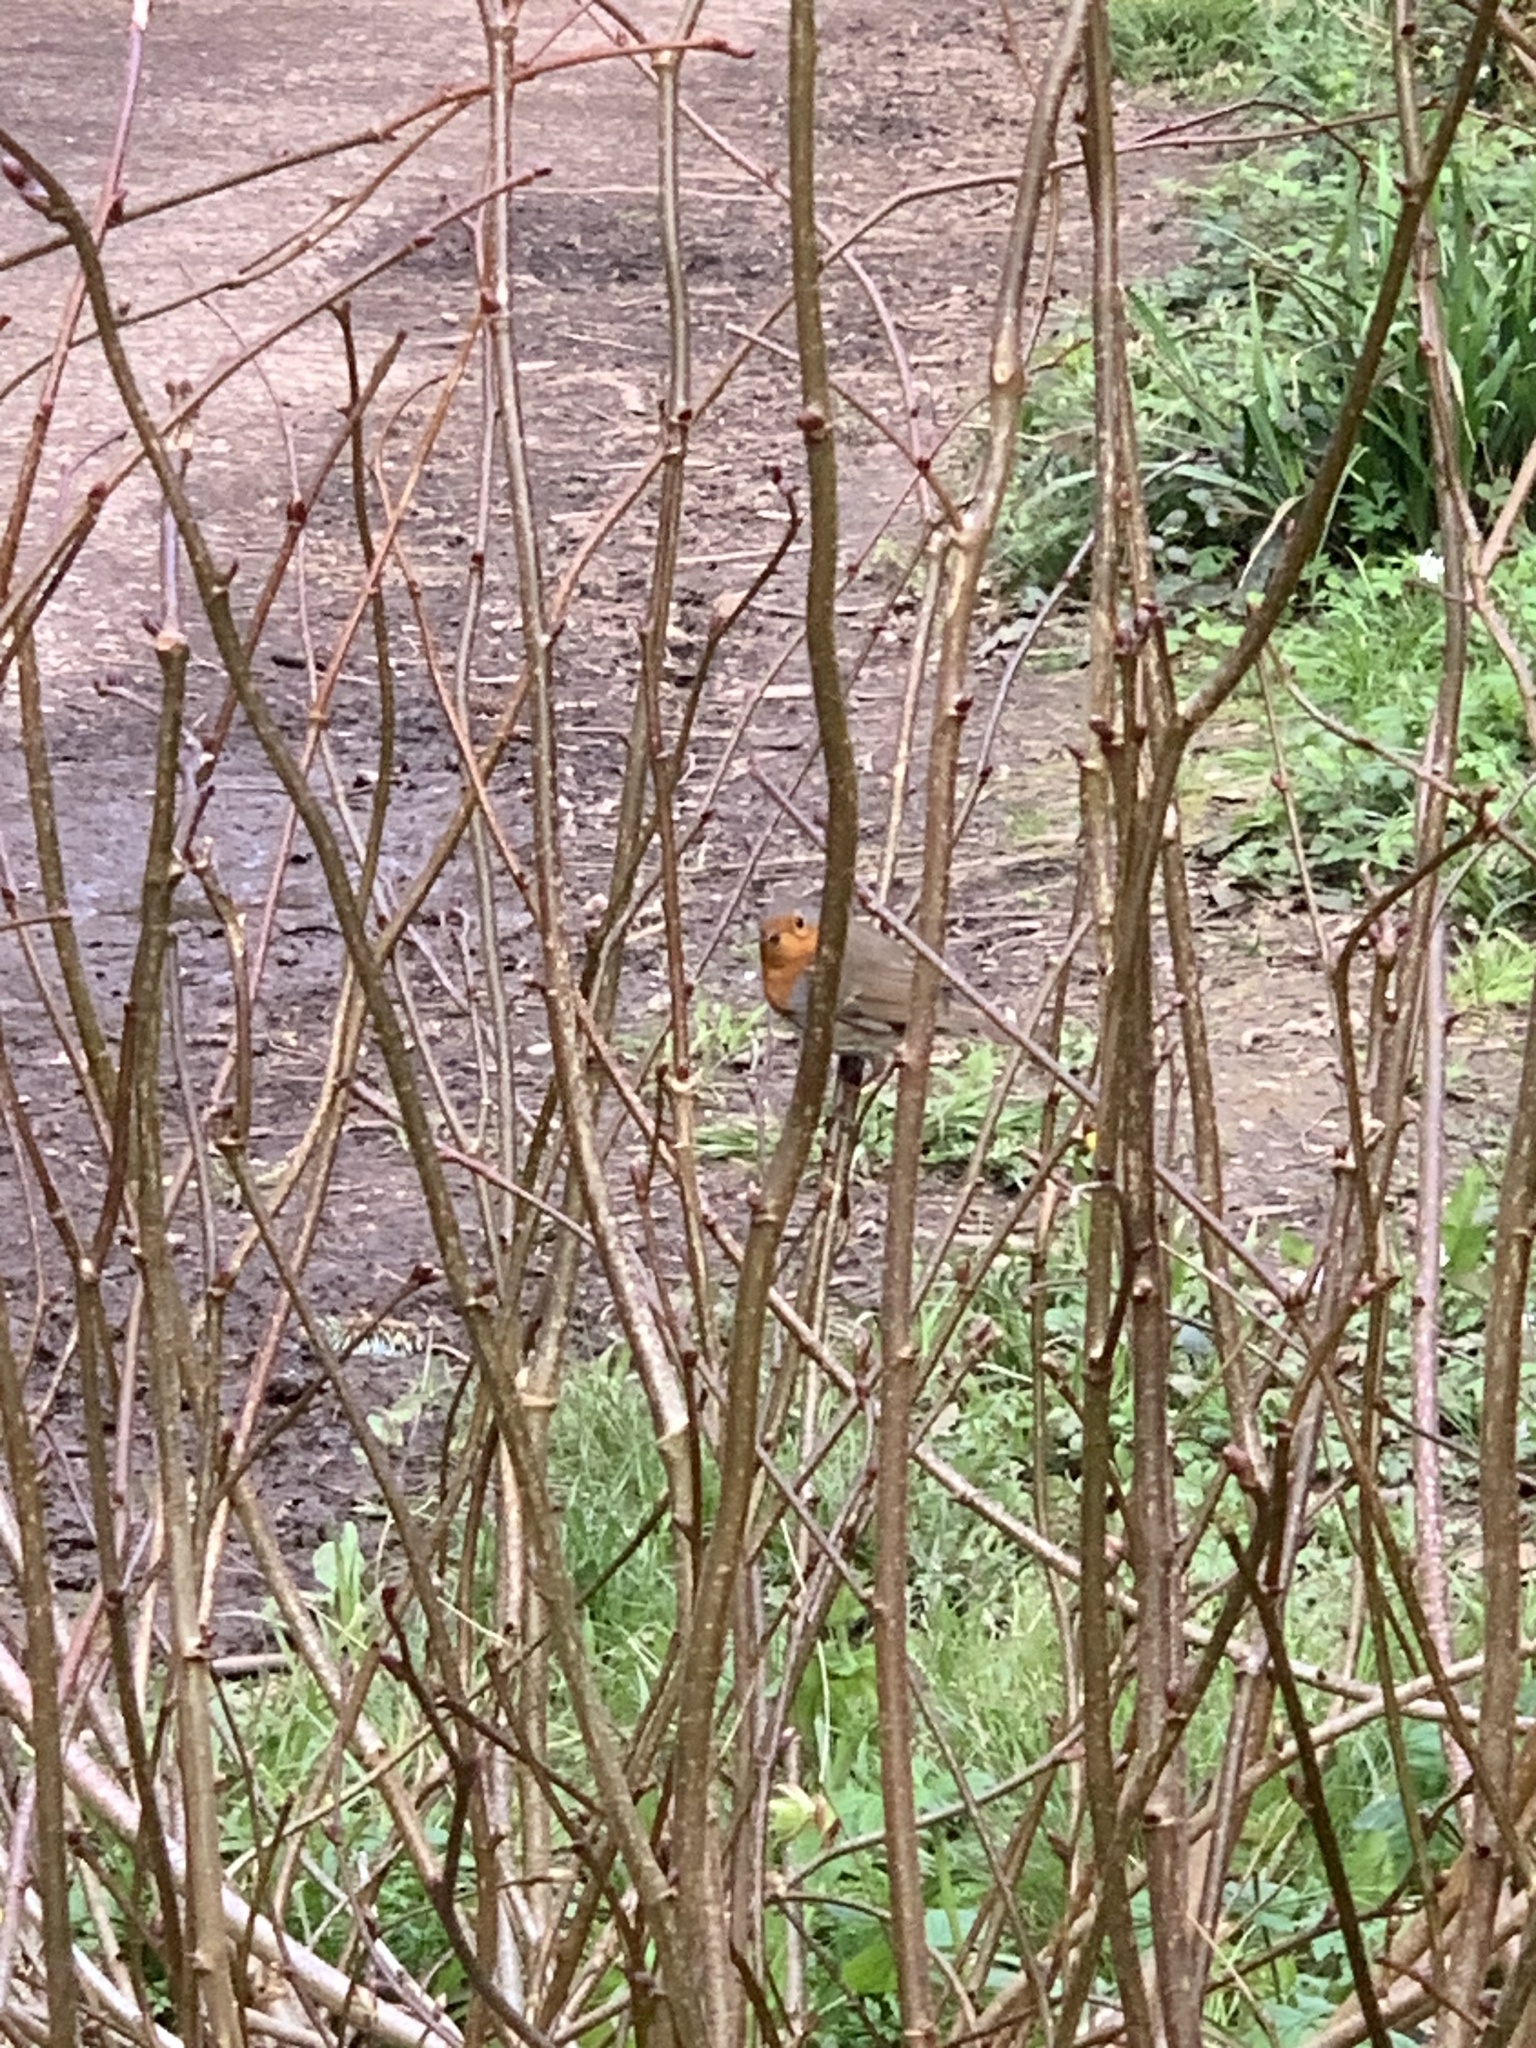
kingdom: Animalia
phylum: Chordata
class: Aves
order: Passeriformes
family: Muscicapidae
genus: Erithacus
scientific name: Erithacus rubecula
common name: European robin
